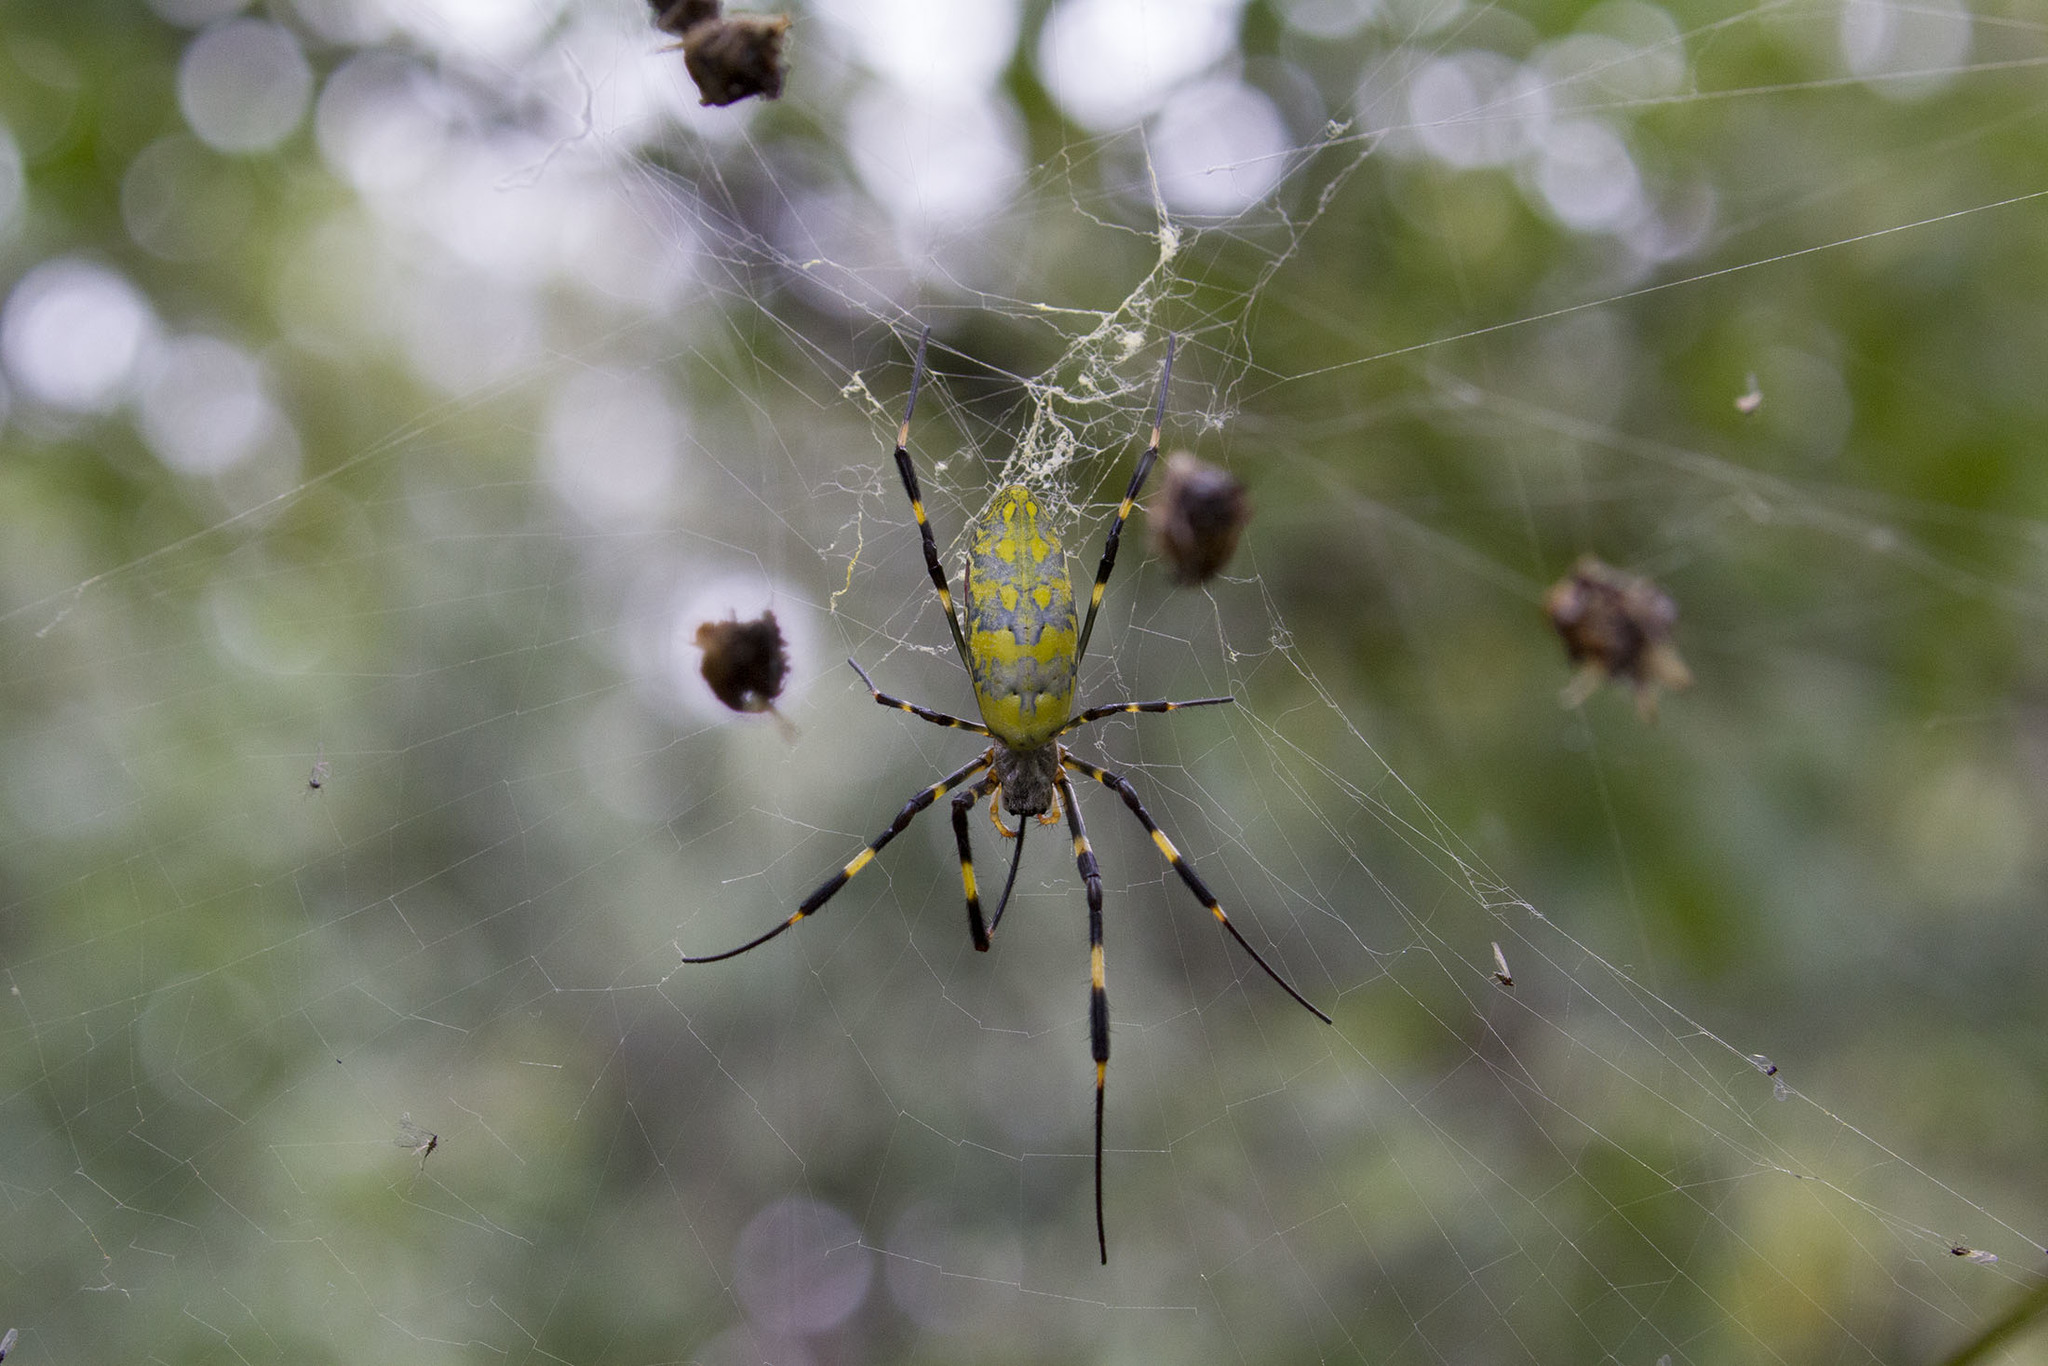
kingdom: Animalia
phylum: Arthropoda
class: Arachnida
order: Araneae
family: Araneidae
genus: Trichonephila
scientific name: Trichonephila clavata
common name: Jorō spider
